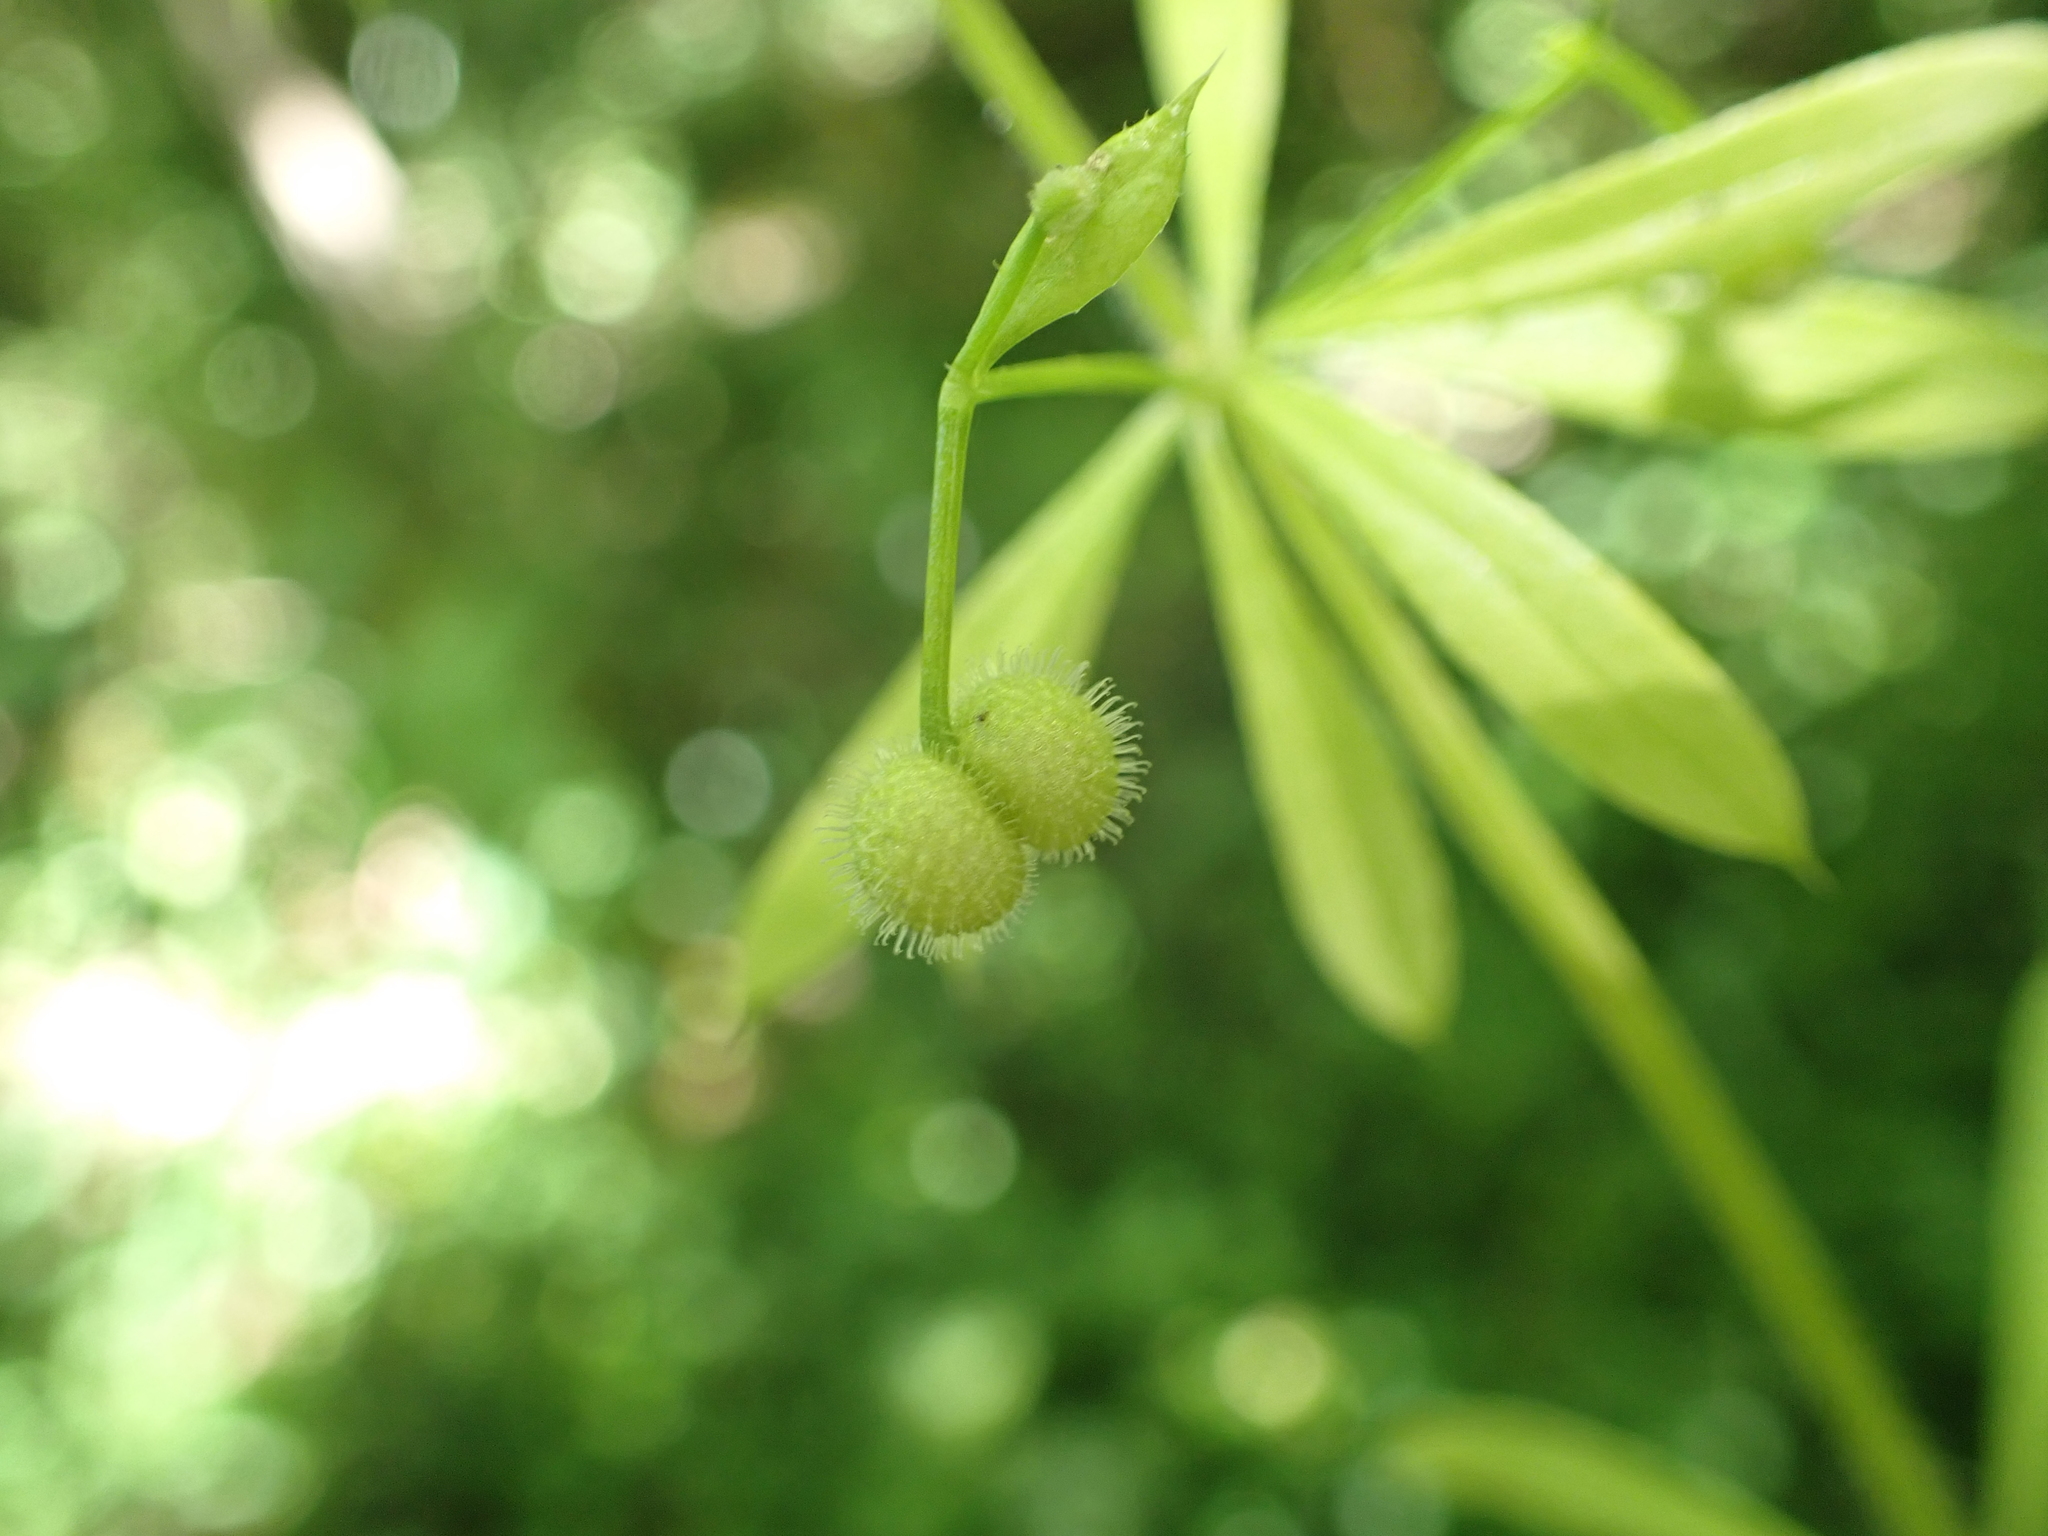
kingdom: Plantae
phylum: Tracheophyta
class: Magnoliopsida
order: Gentianales
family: Rubiaceae
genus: Galium
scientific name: Galium aparine
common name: Cleavers
